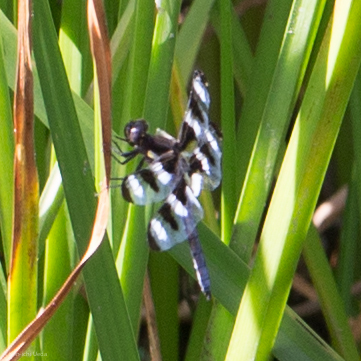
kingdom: Animalia
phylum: Arthropoda
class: Insecta
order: Odonata
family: Libellulidae
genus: Libellula
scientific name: Libellula pulchella
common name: Twelve-spotted skimmer
